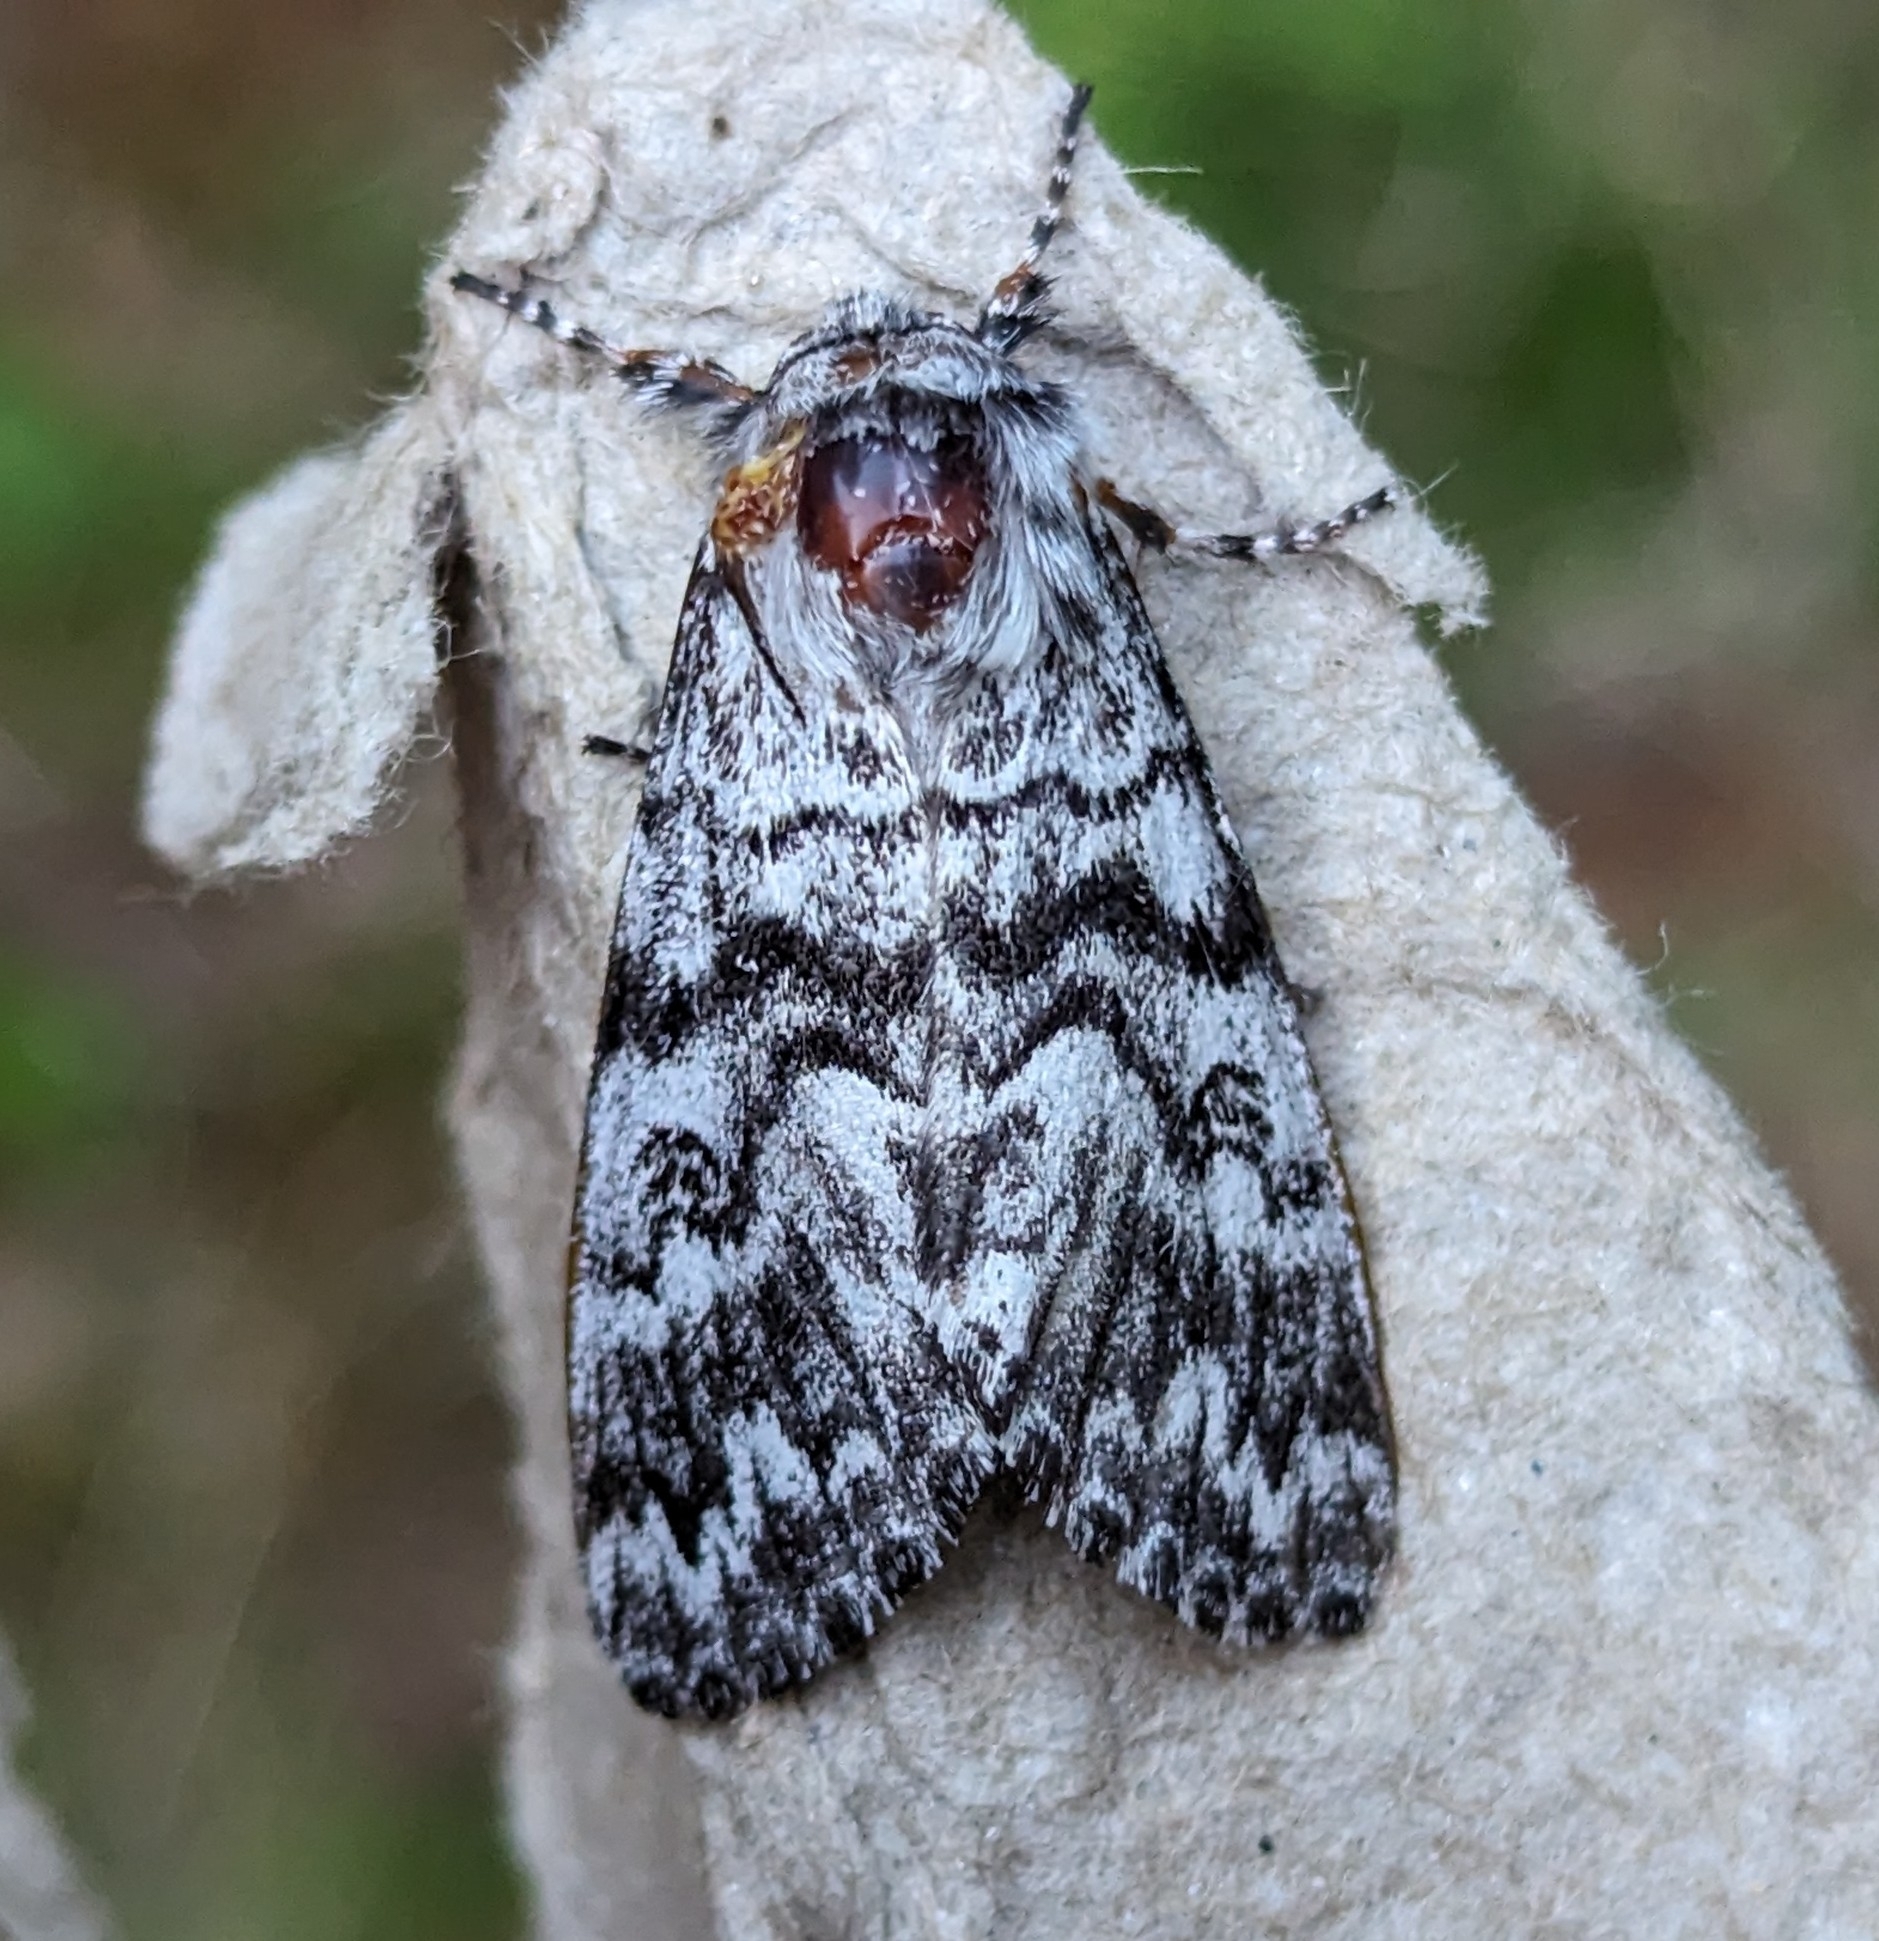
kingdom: Animalia
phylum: Arthropoda
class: Insecta
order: Lepidoptera
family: Noctuidae
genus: Panthea
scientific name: Panthea virginarius
